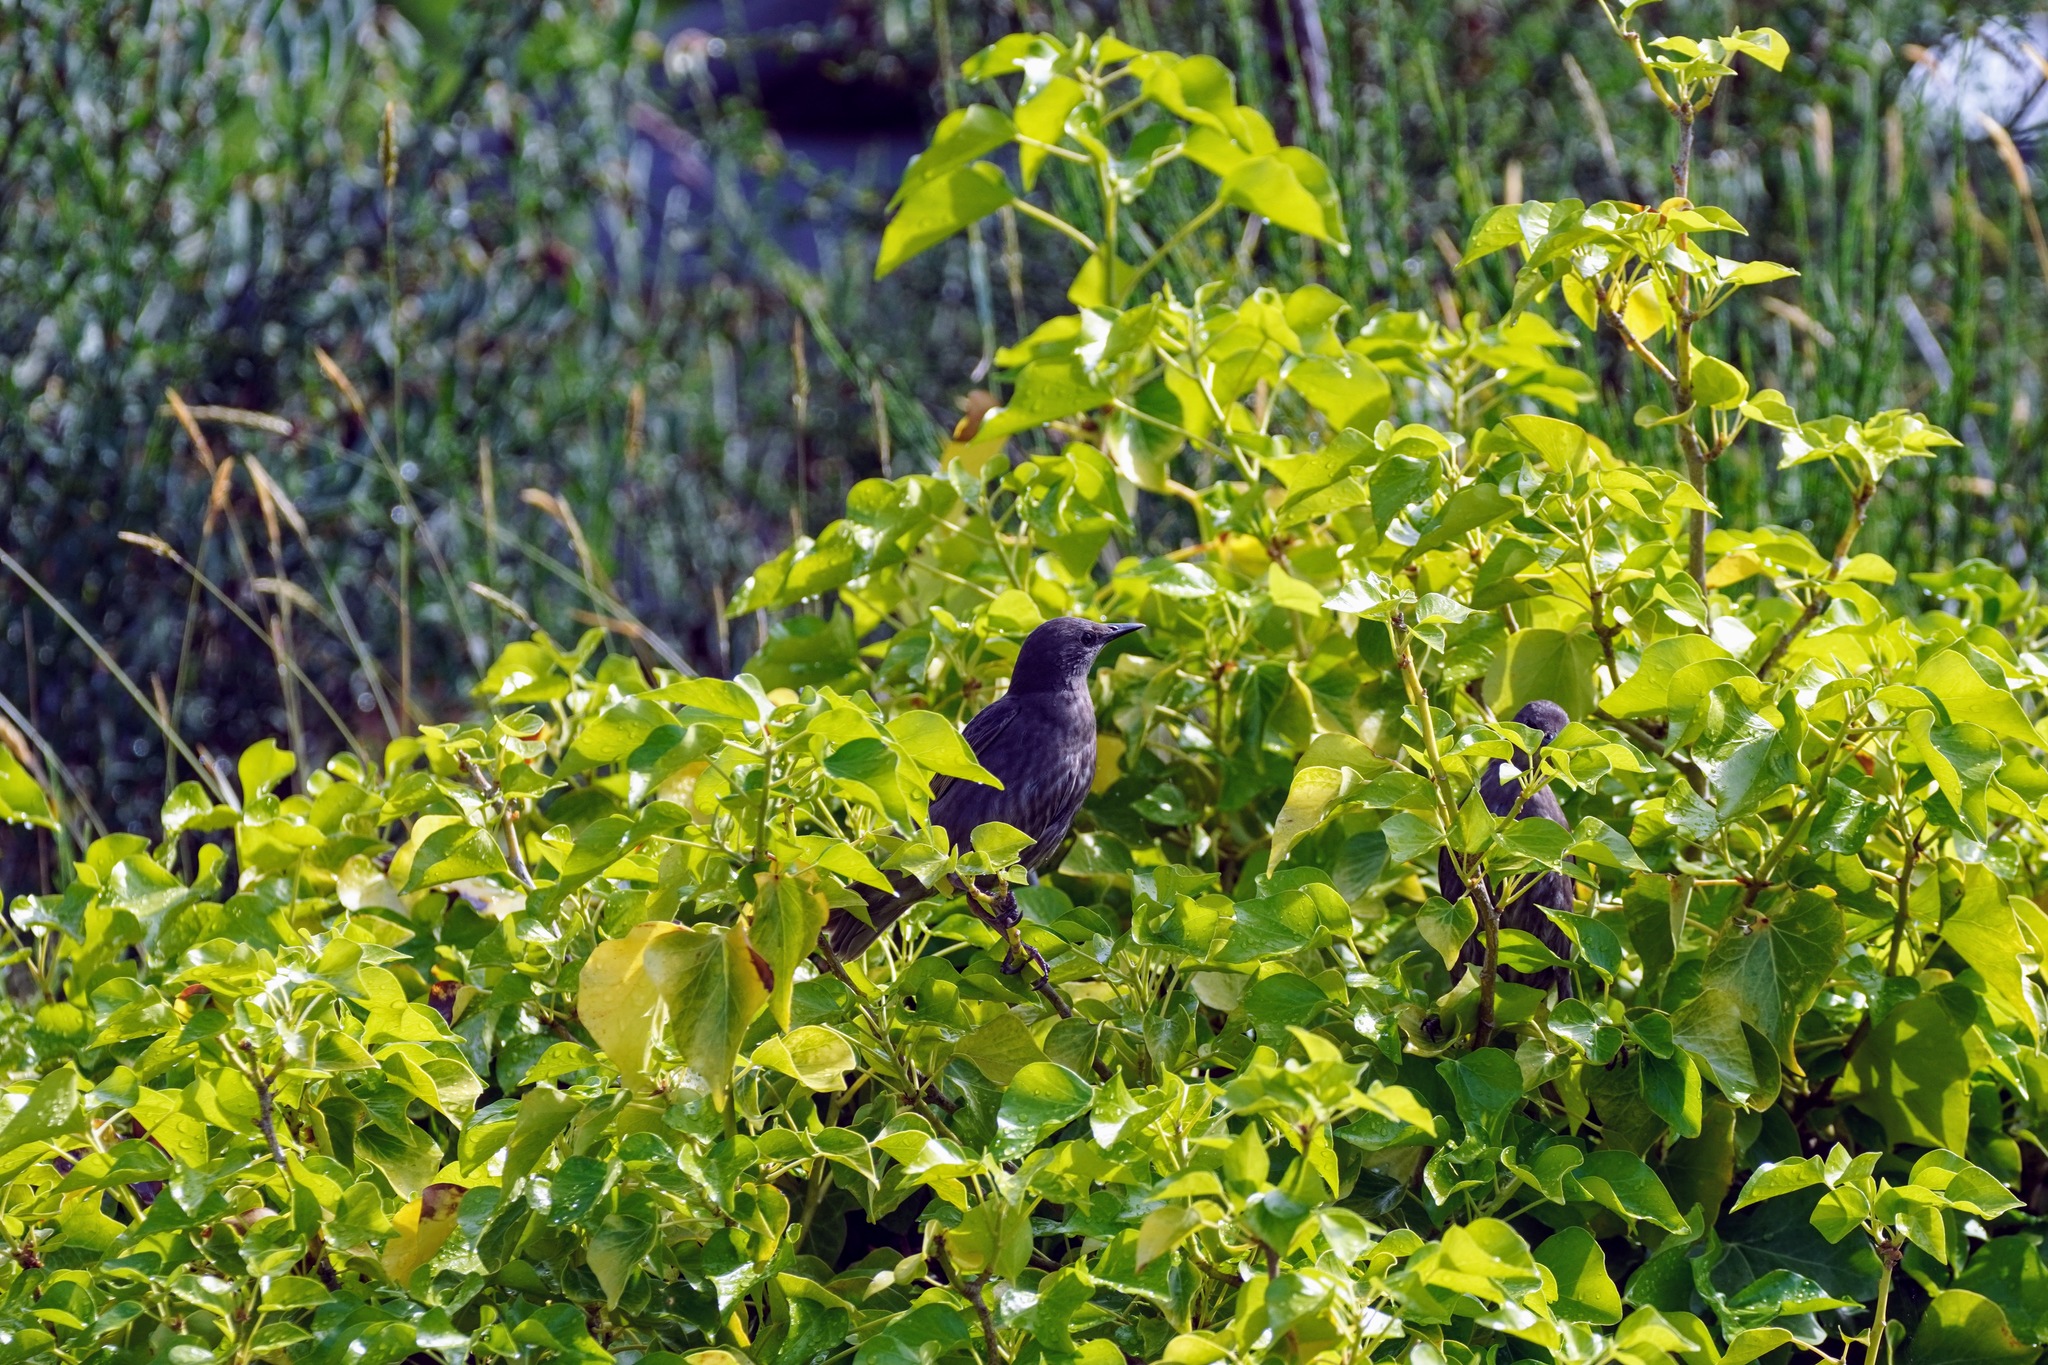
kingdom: Animalia
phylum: Chordata
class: Aves
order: Passeriformes
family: Sturnidae
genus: Sturnus
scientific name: Sturnus vulgaris
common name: Common starling
